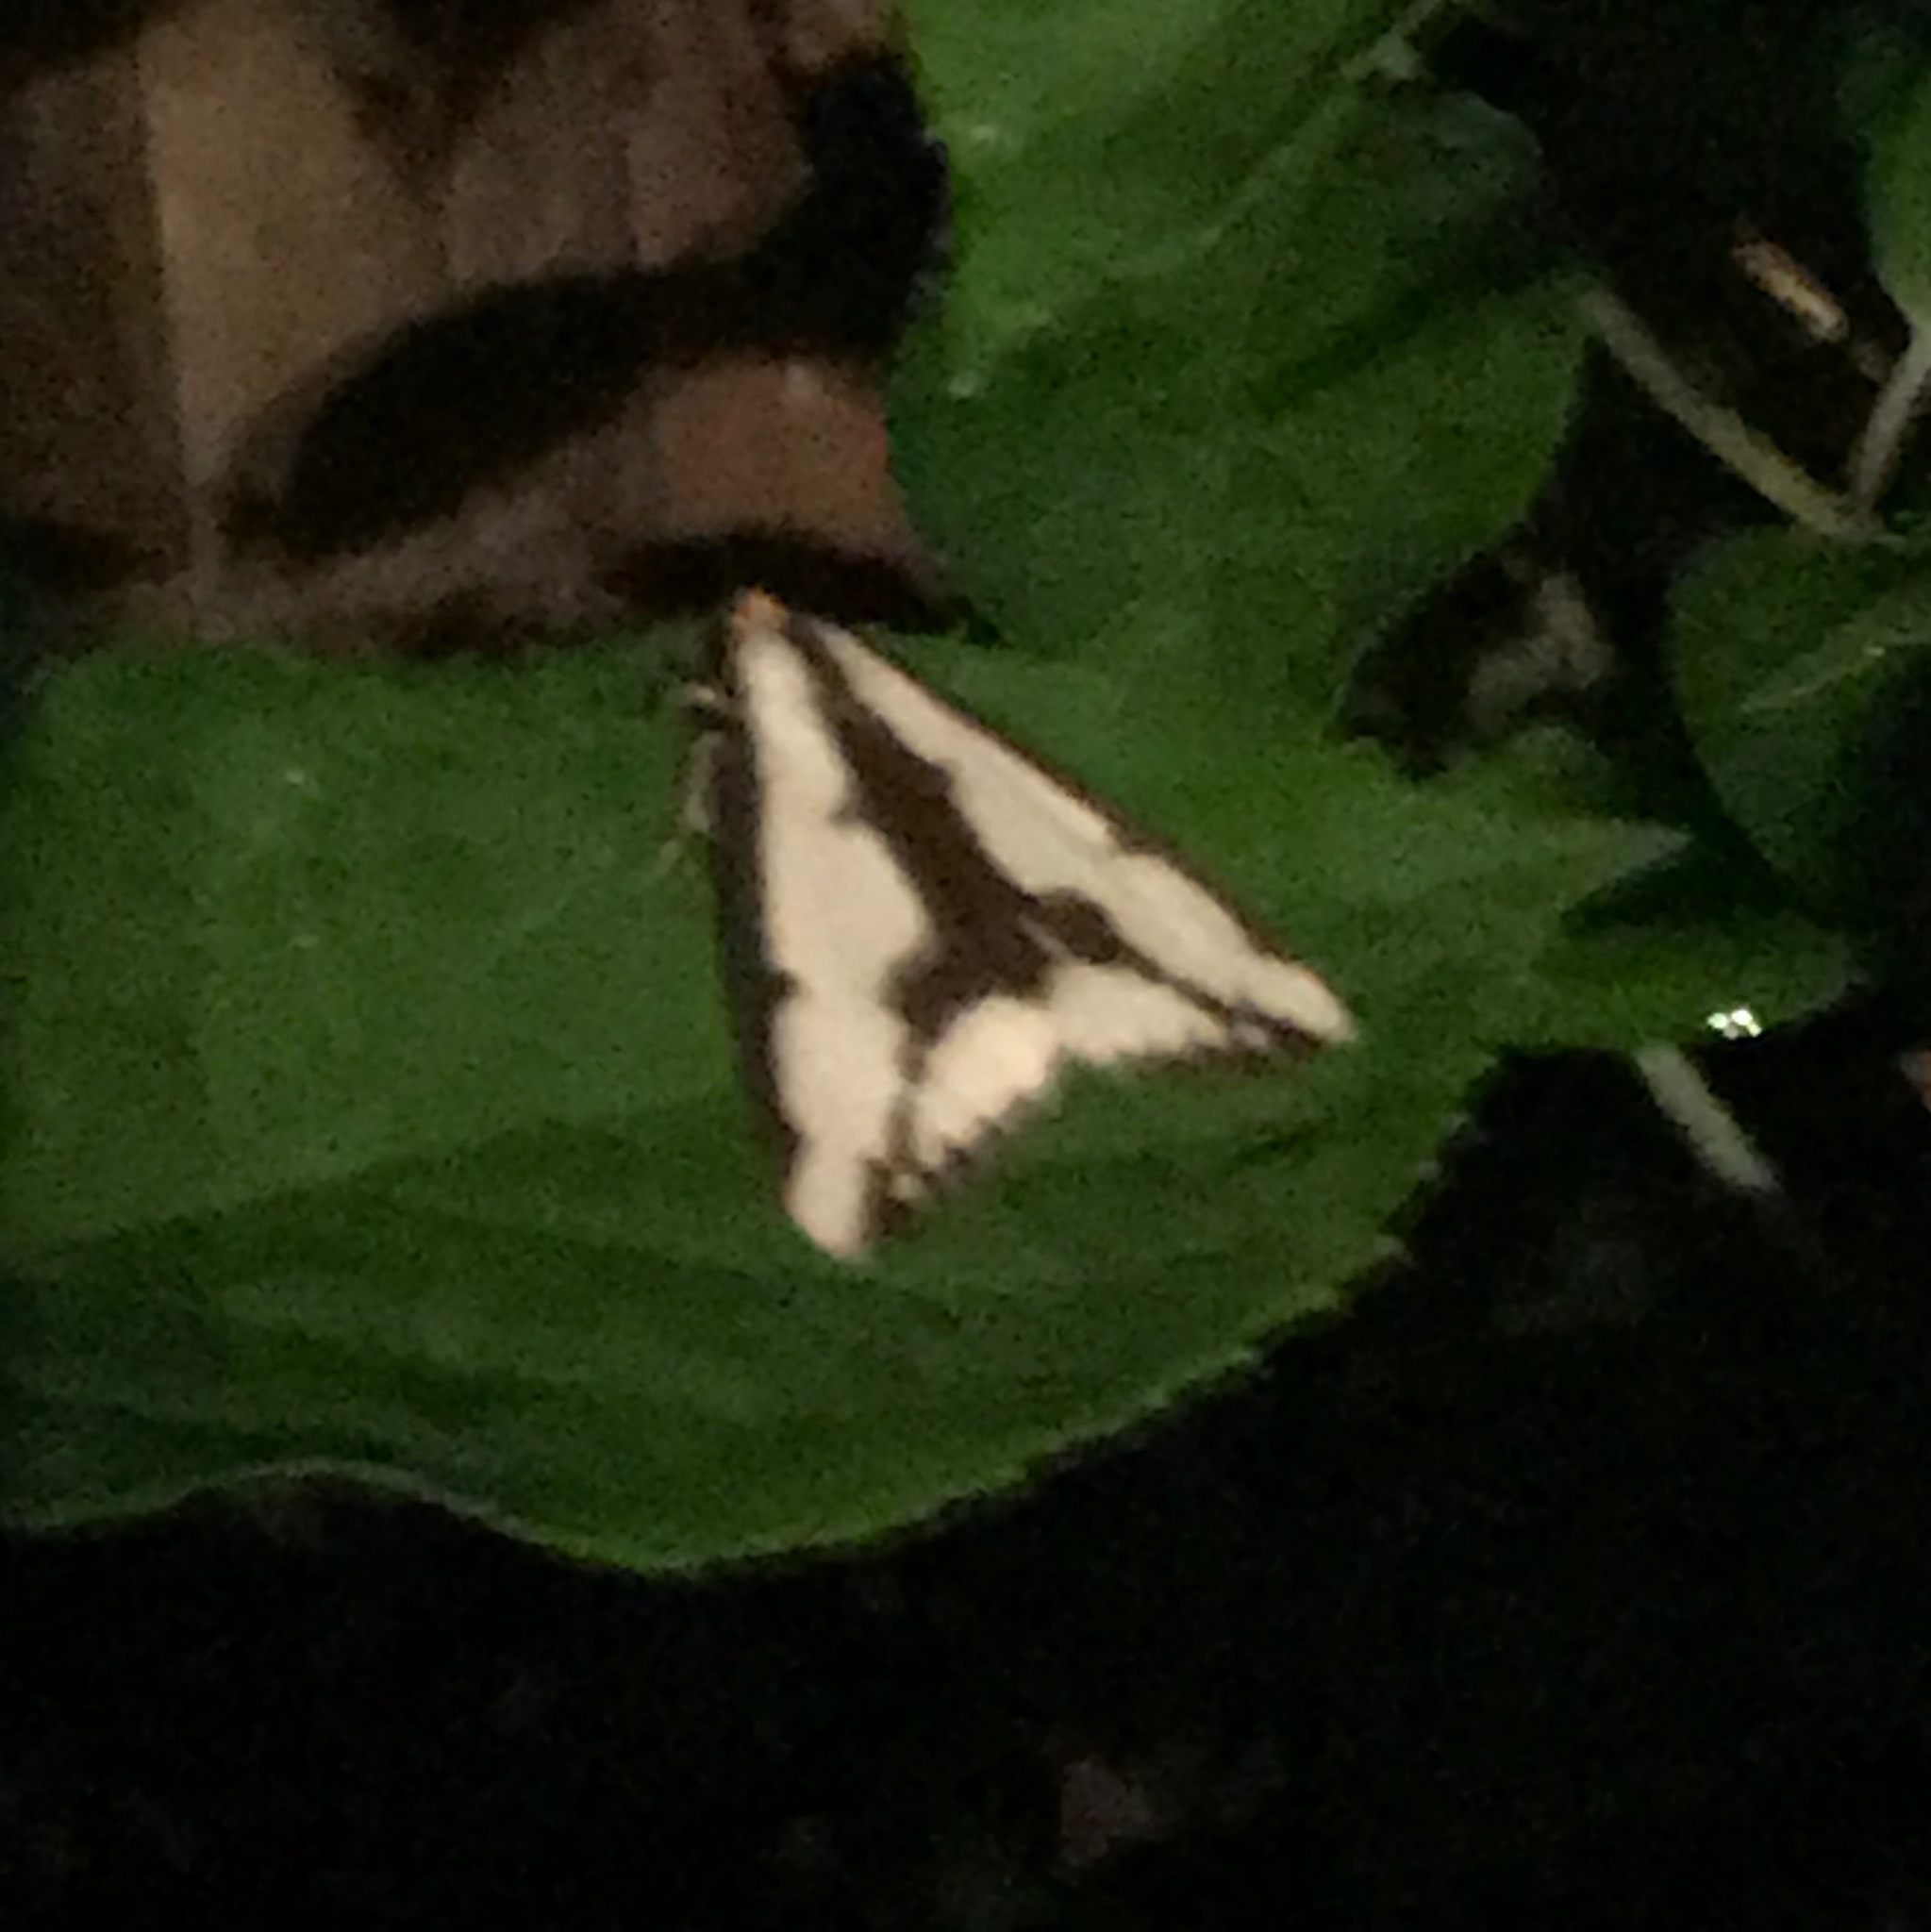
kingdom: Animalia
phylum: Arthropoda
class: Insecta
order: Lepidoptera
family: Erebidae
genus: Haploa
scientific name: Haploa lecontei
